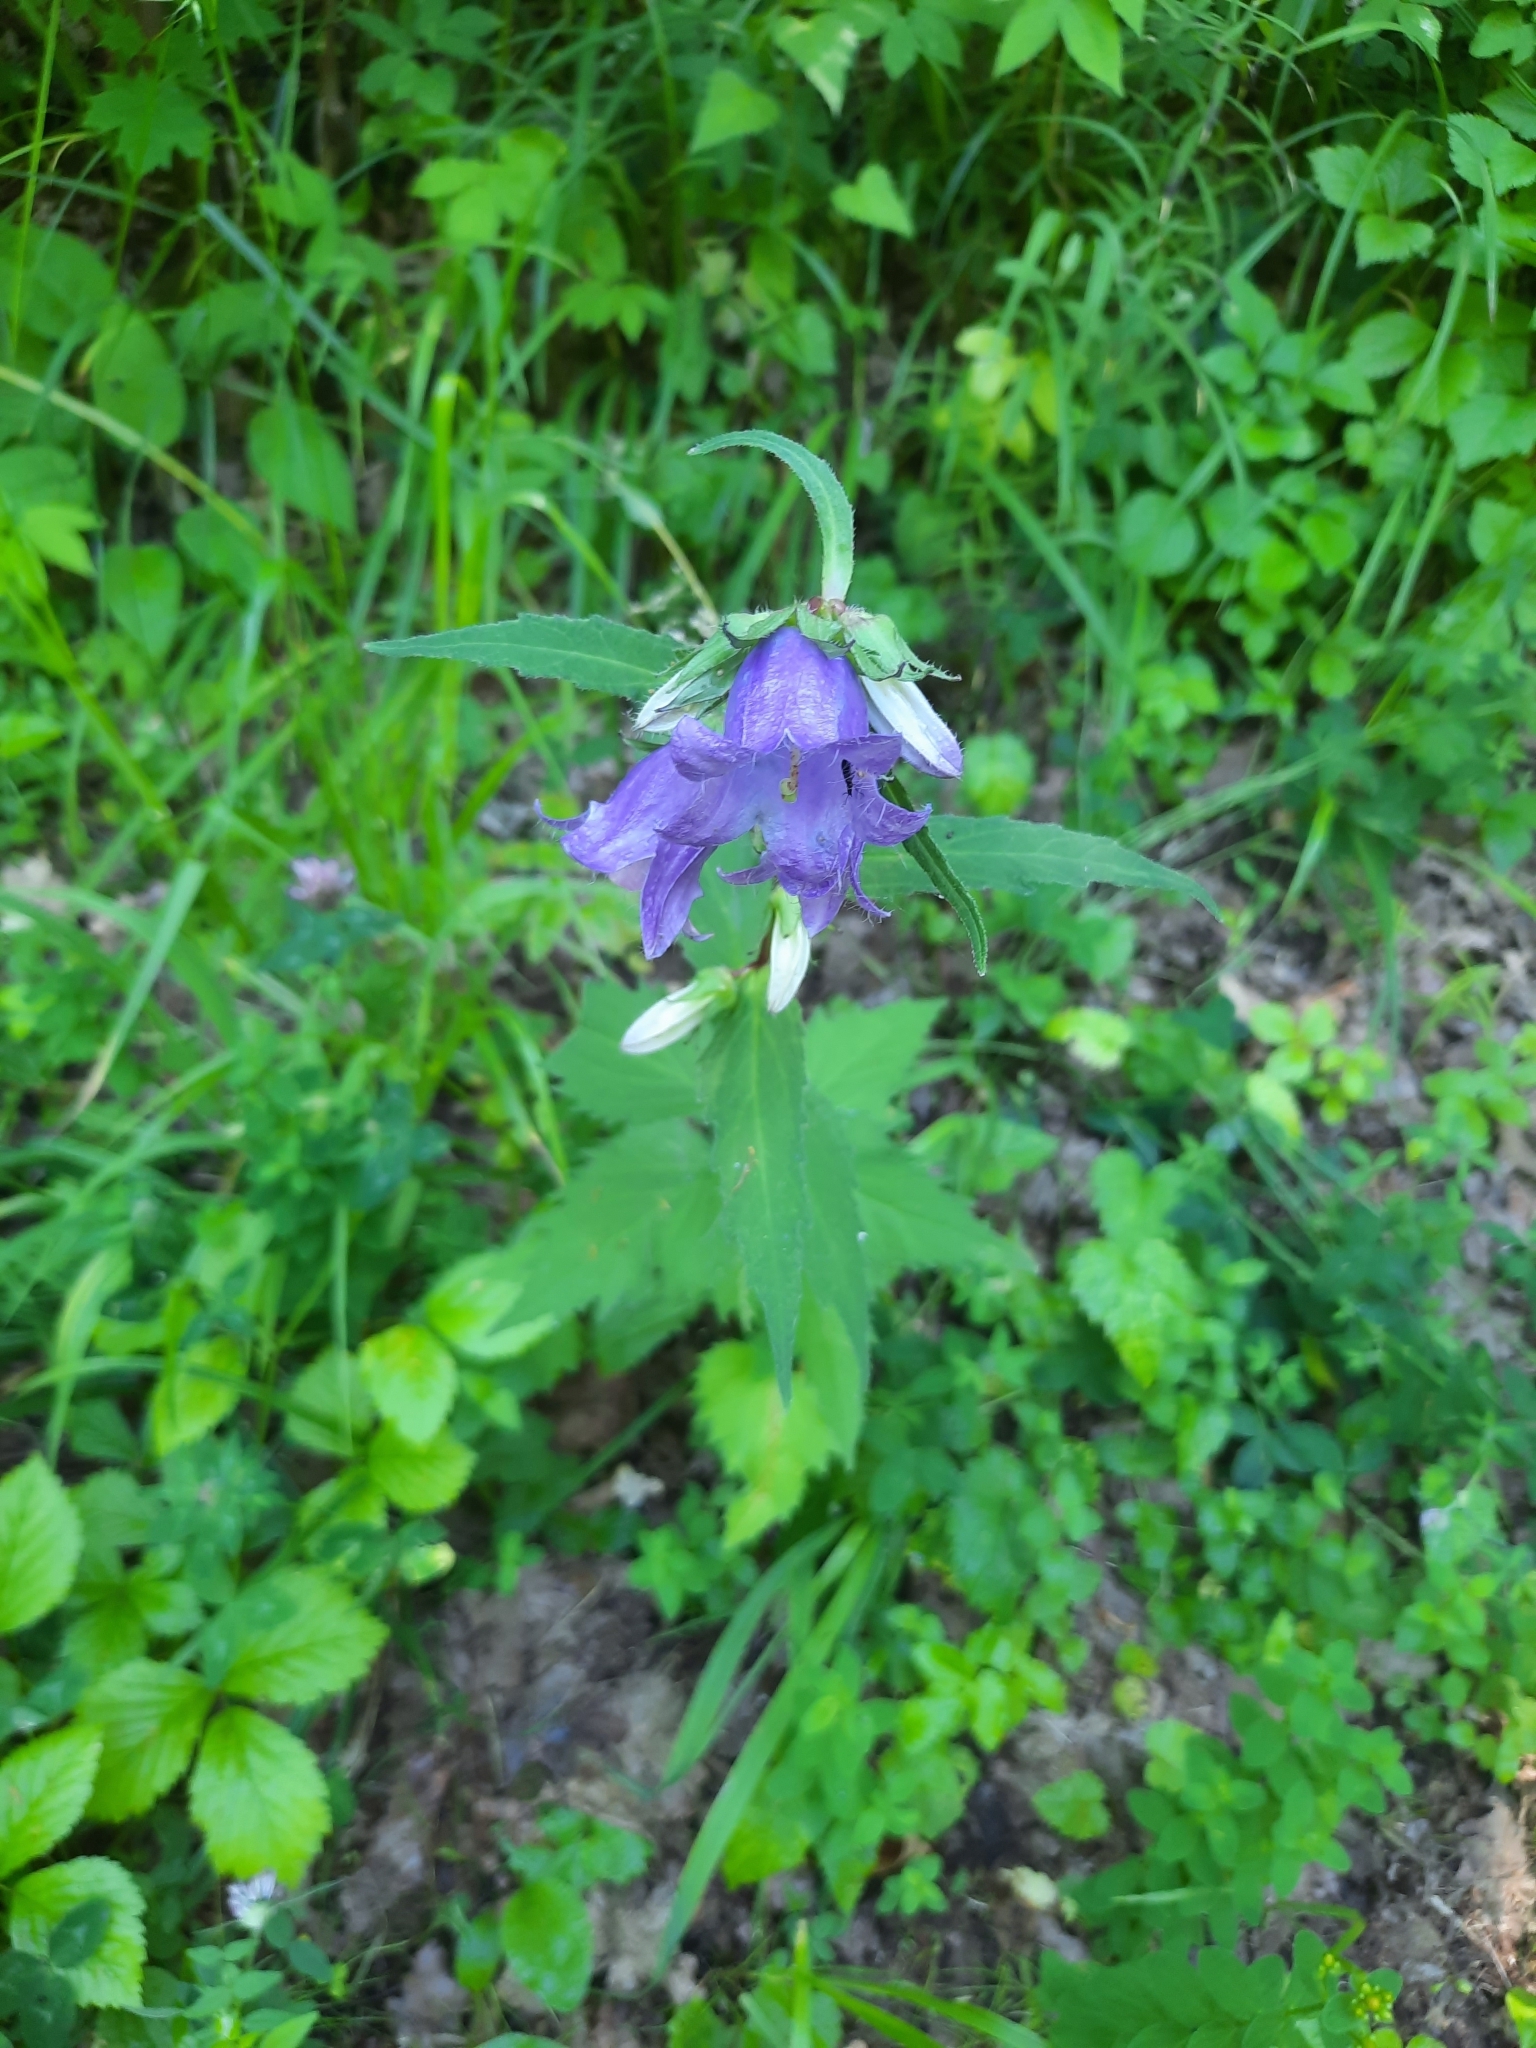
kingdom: Plantae
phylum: Tracheophyta
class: Magnoliopsida
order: Asterales
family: Campanulaceae
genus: Campanula
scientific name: Campanula trachelium
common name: Nettle-leaved bellflower
